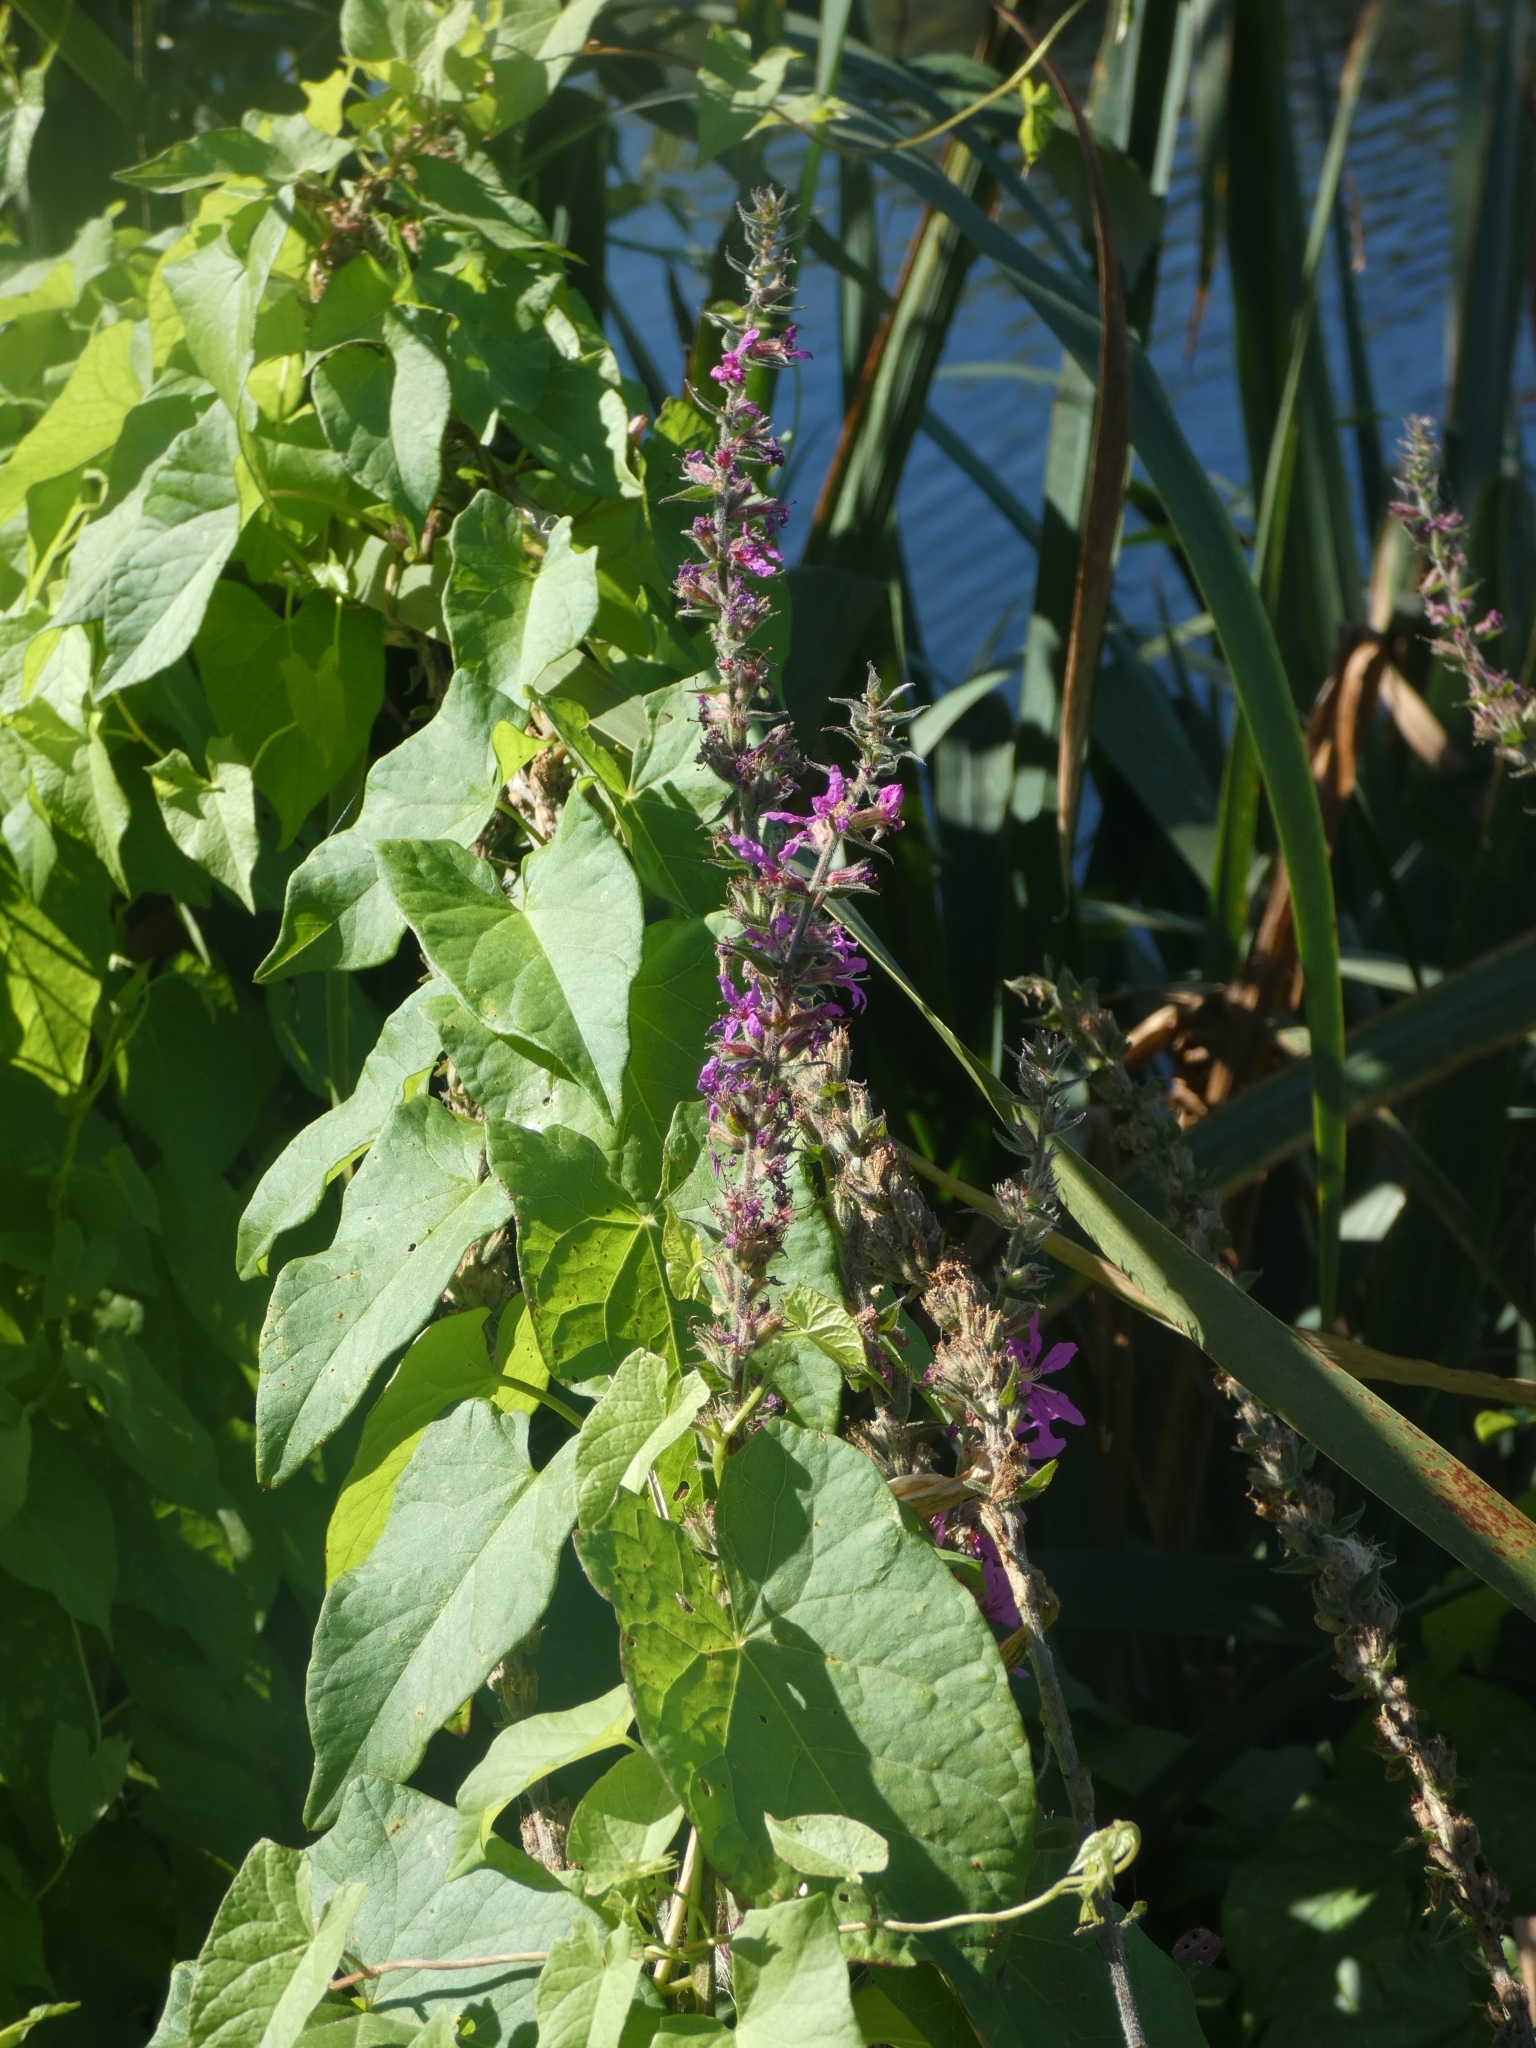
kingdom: Plantae
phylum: Tracheophyta
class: Magnoliopsida
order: Myrtales
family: Lythraceae
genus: Lythrum
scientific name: Lythrum salicaria
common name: Purple loosestrife
